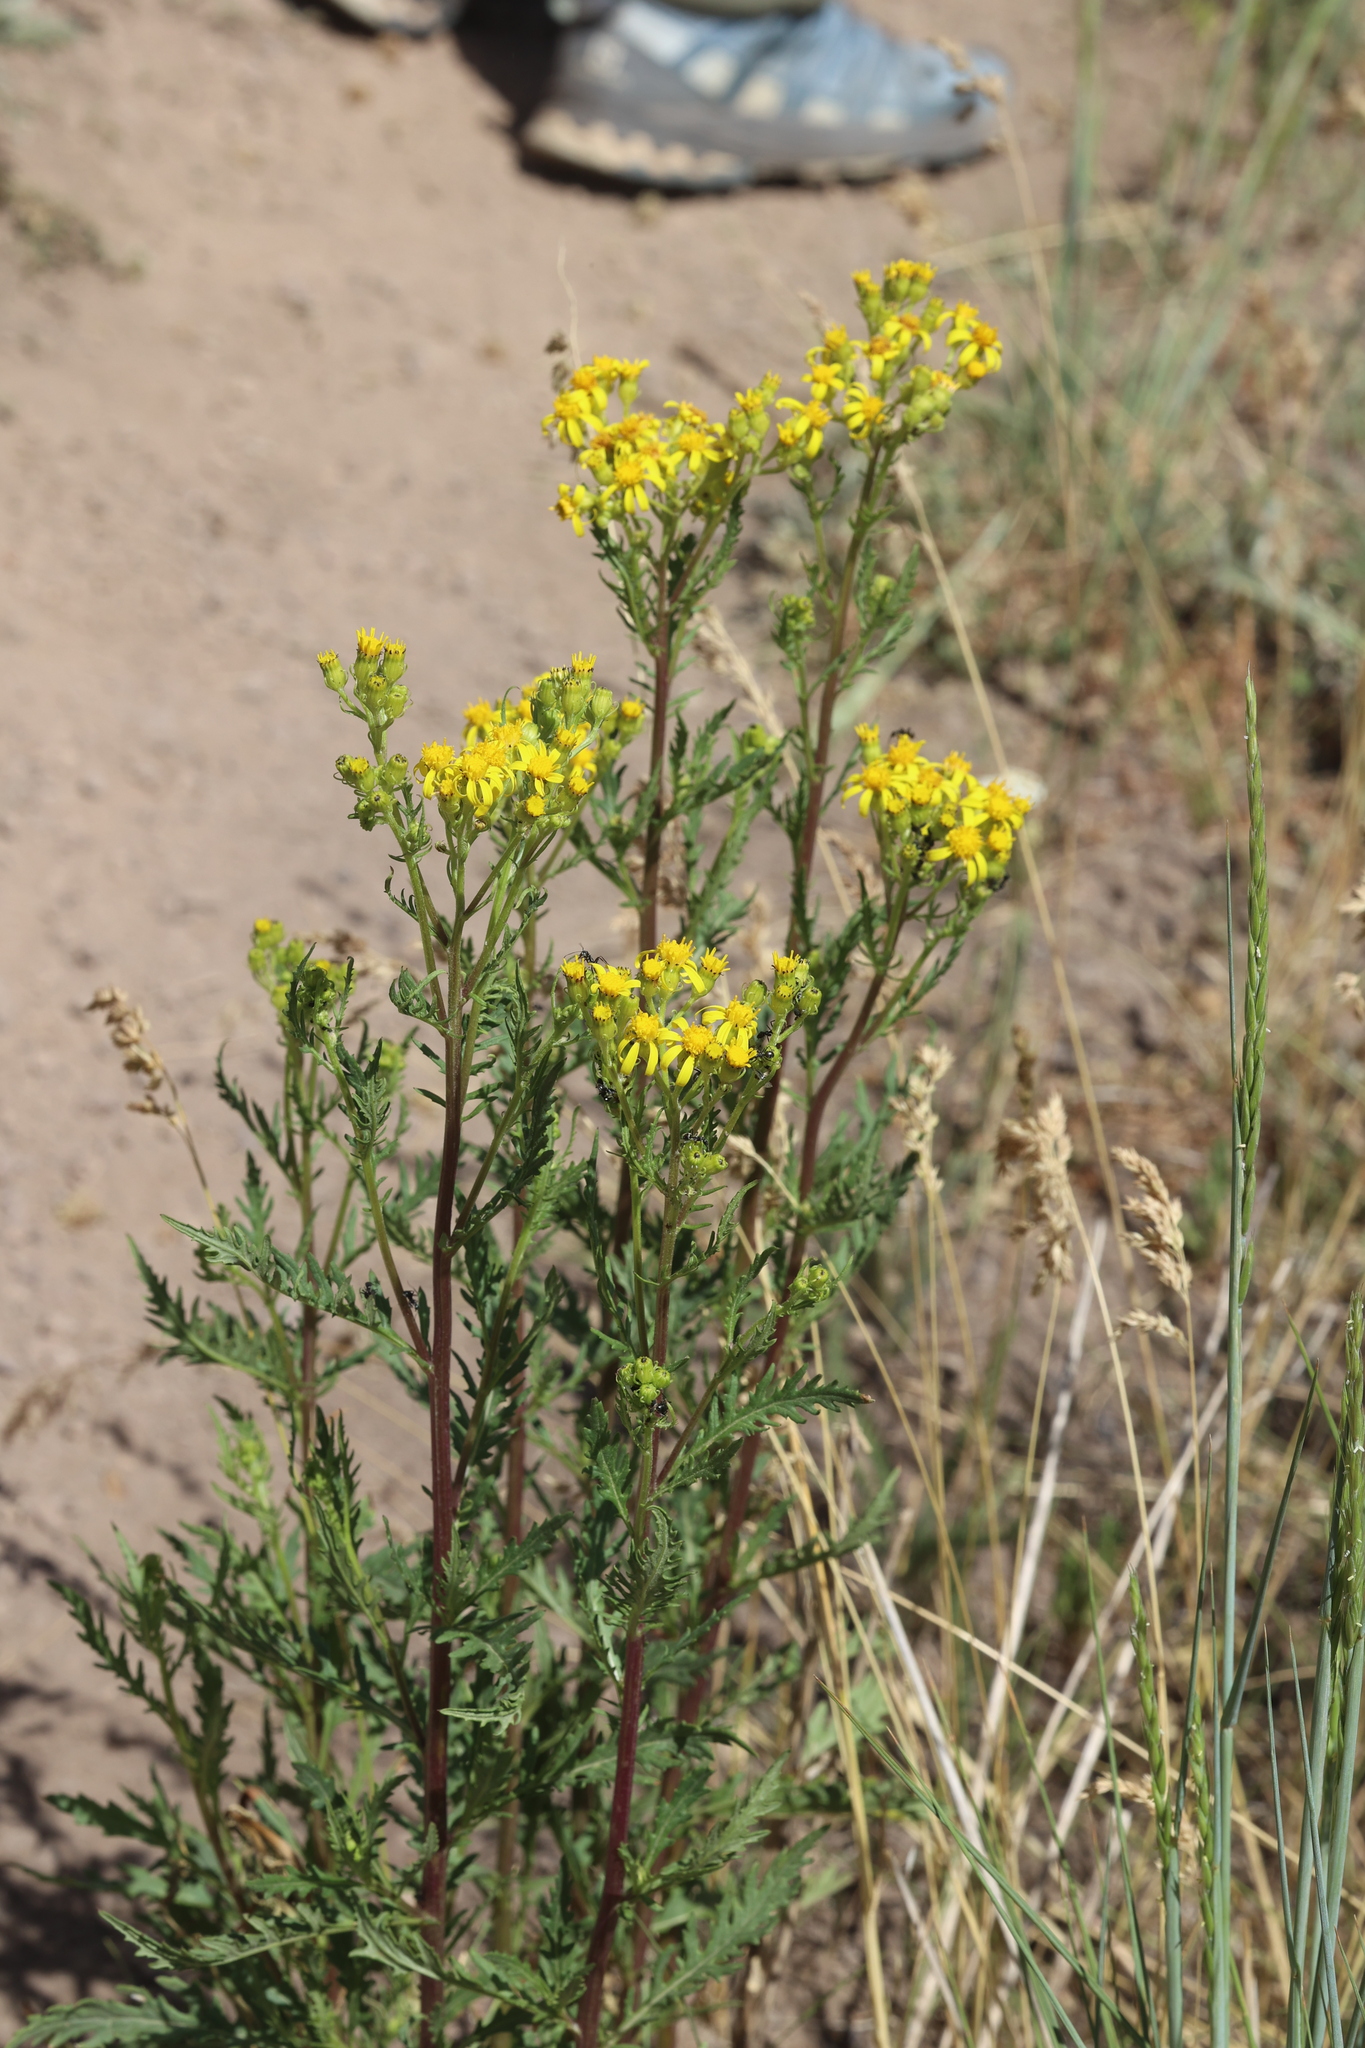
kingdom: Plantae
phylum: Tracheophyta
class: Magnoliopsida
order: Asterales
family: Asteraceae
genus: Senecio
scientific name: Senecio eremophilus
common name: Desert ragwort
